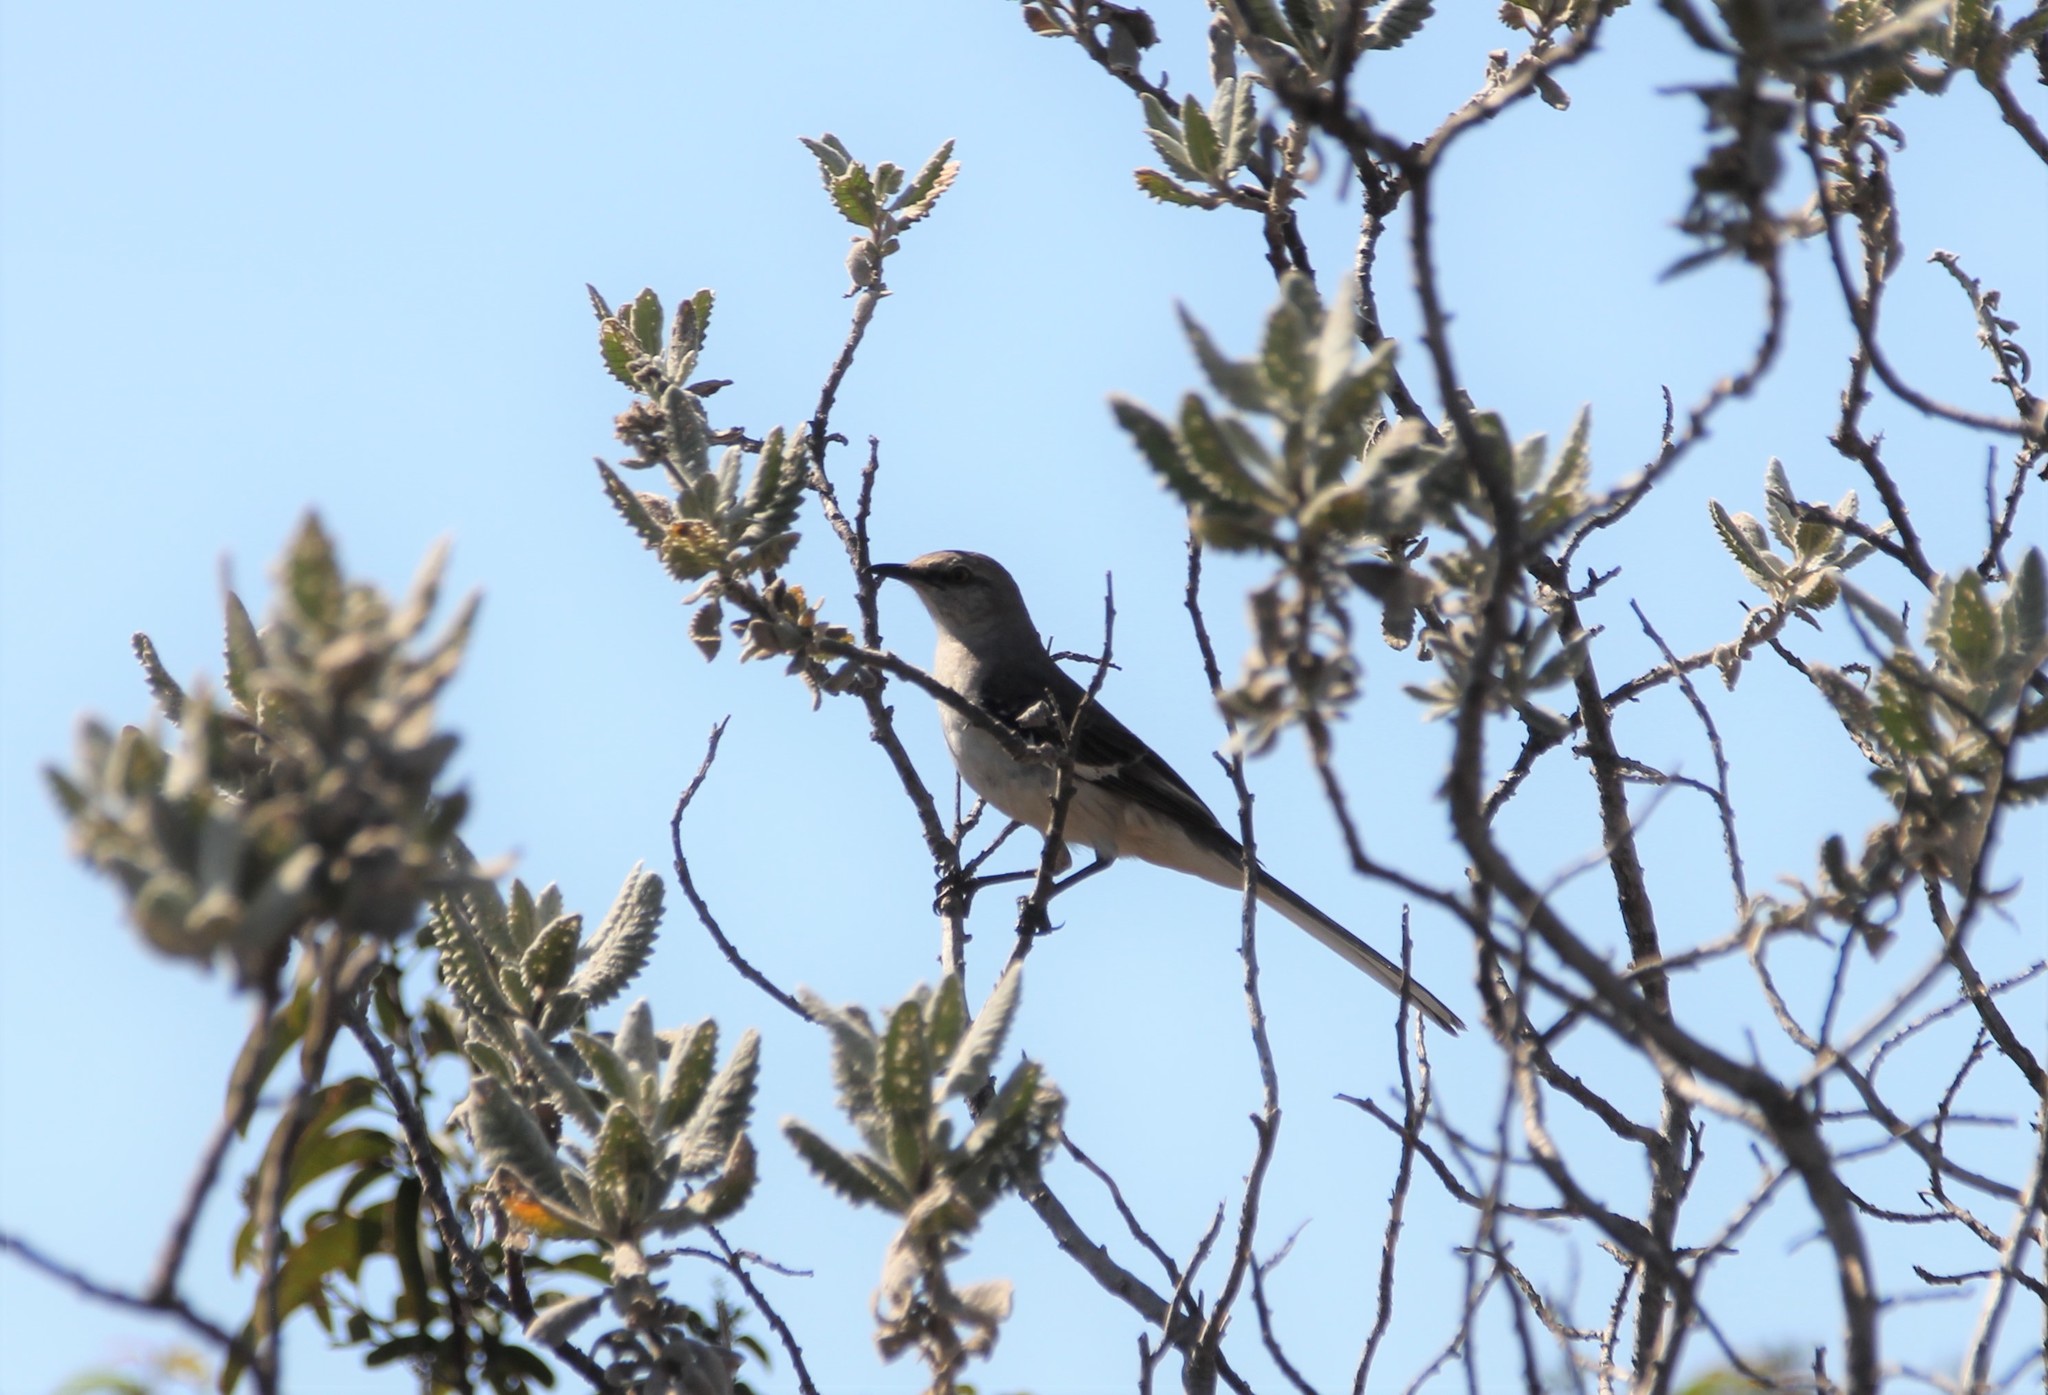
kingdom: Animalia
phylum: Chordata
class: Aves
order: Passeriformes
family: Mimidae
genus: Mimus
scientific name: Mimus polyglottos
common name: Northern mockingbird
